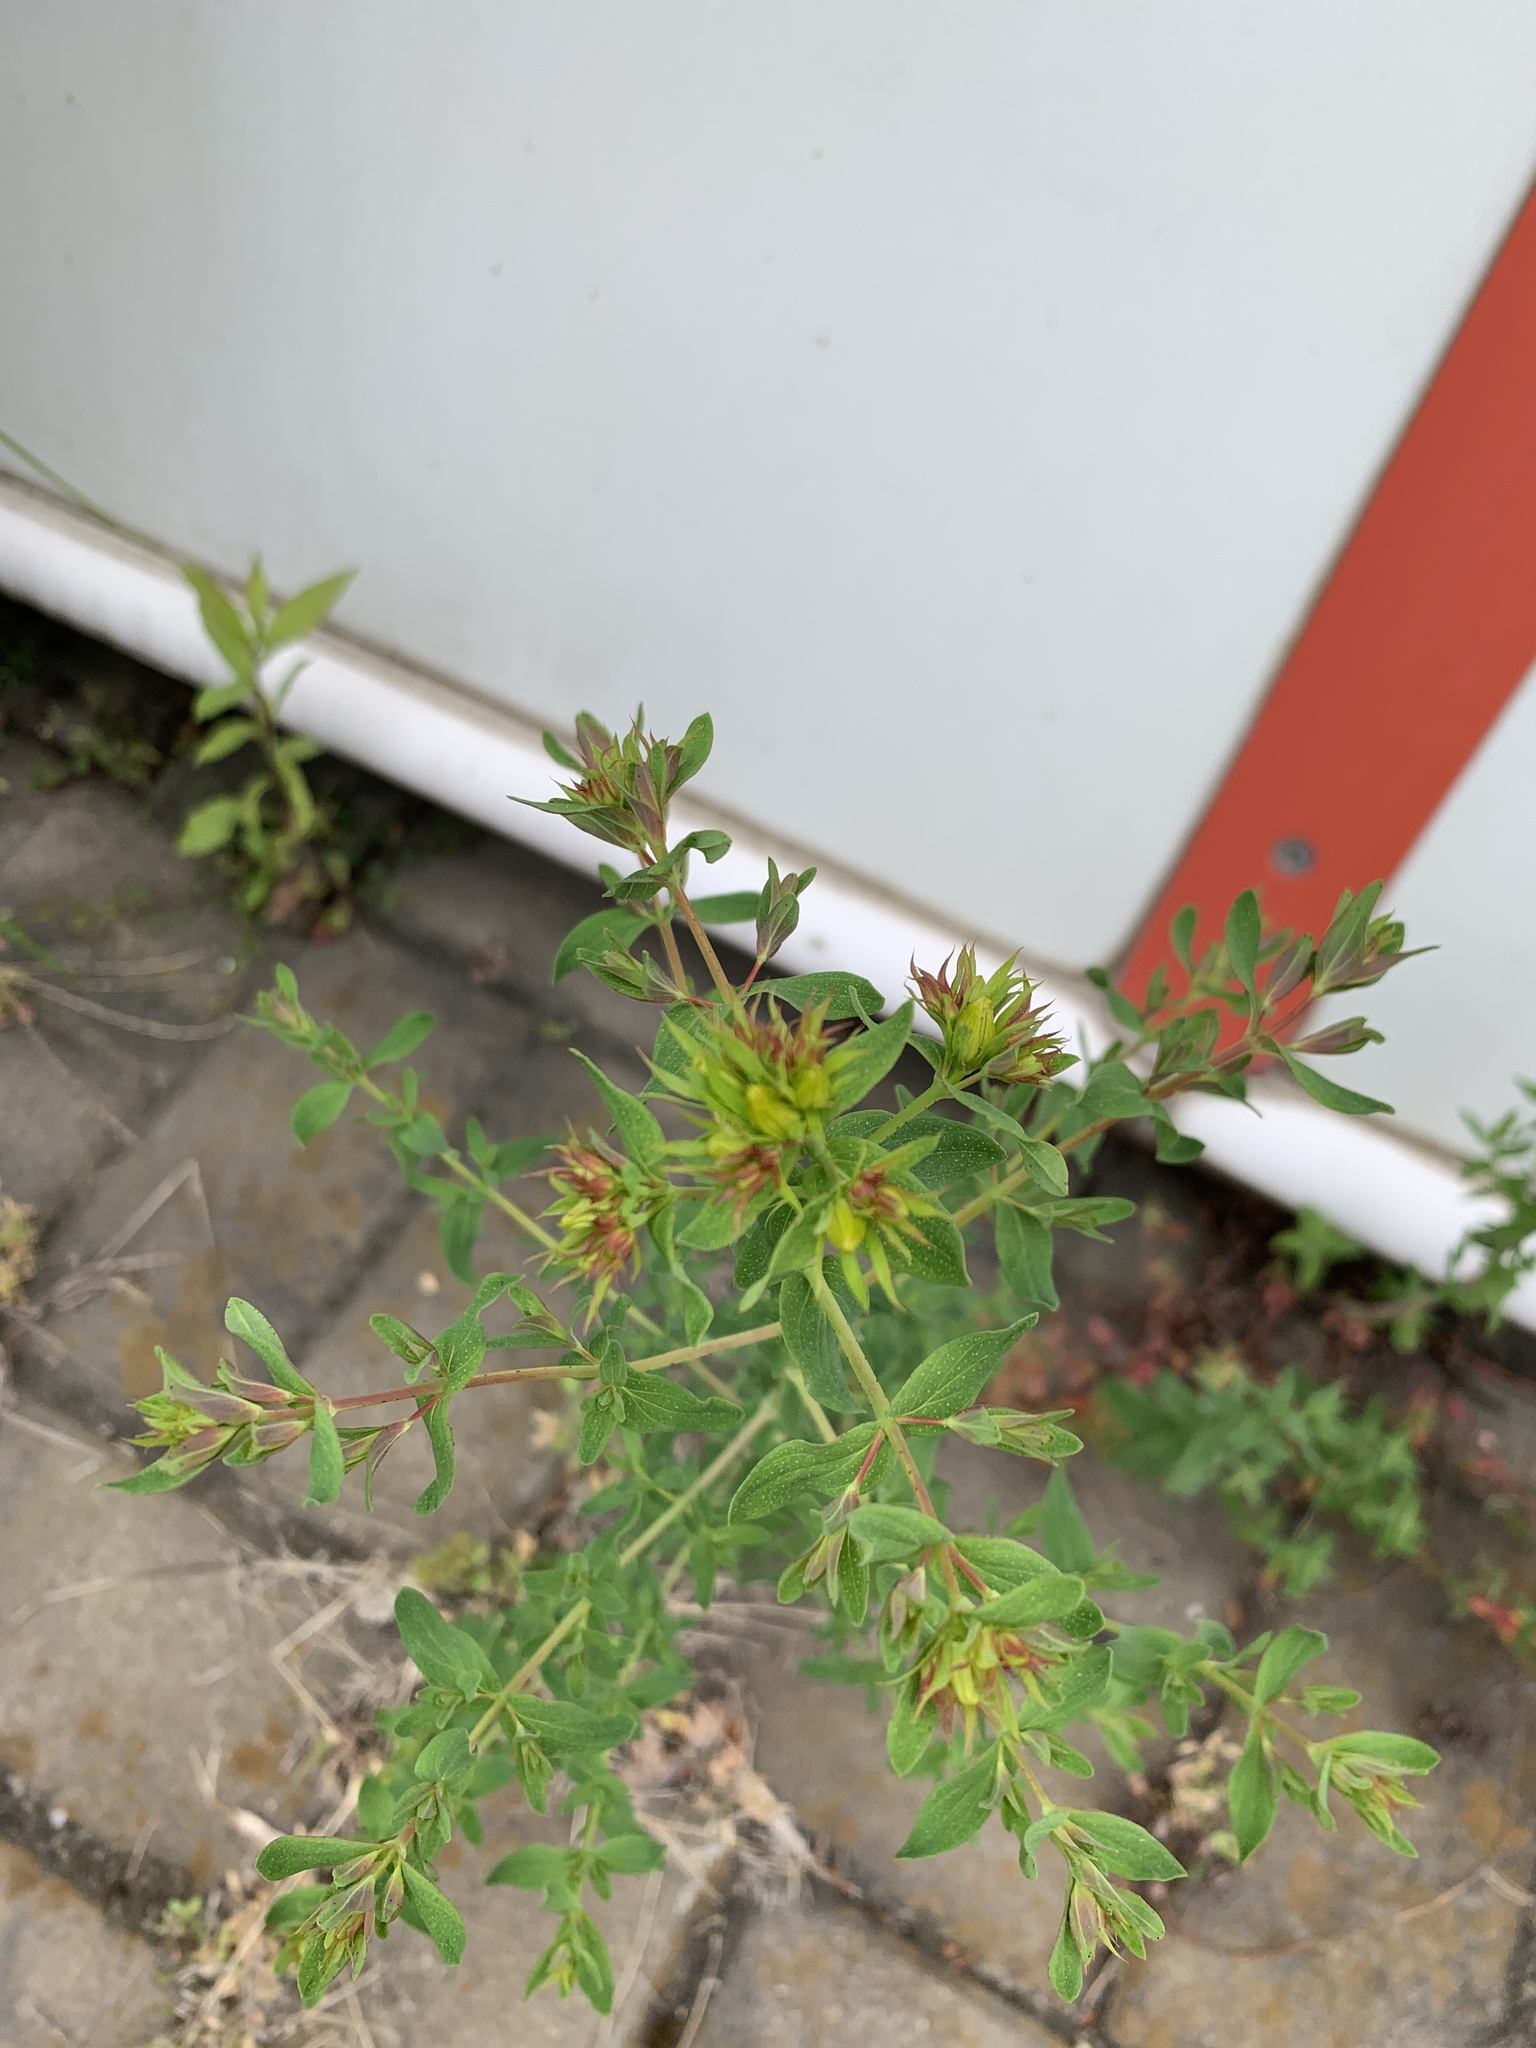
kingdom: Plantae
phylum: Tracheophyta
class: Magnoliopsida
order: Malpighiales
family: Hypericaceae
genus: Hypericum
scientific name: Hypericum perforatum
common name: Common st. johnswort
